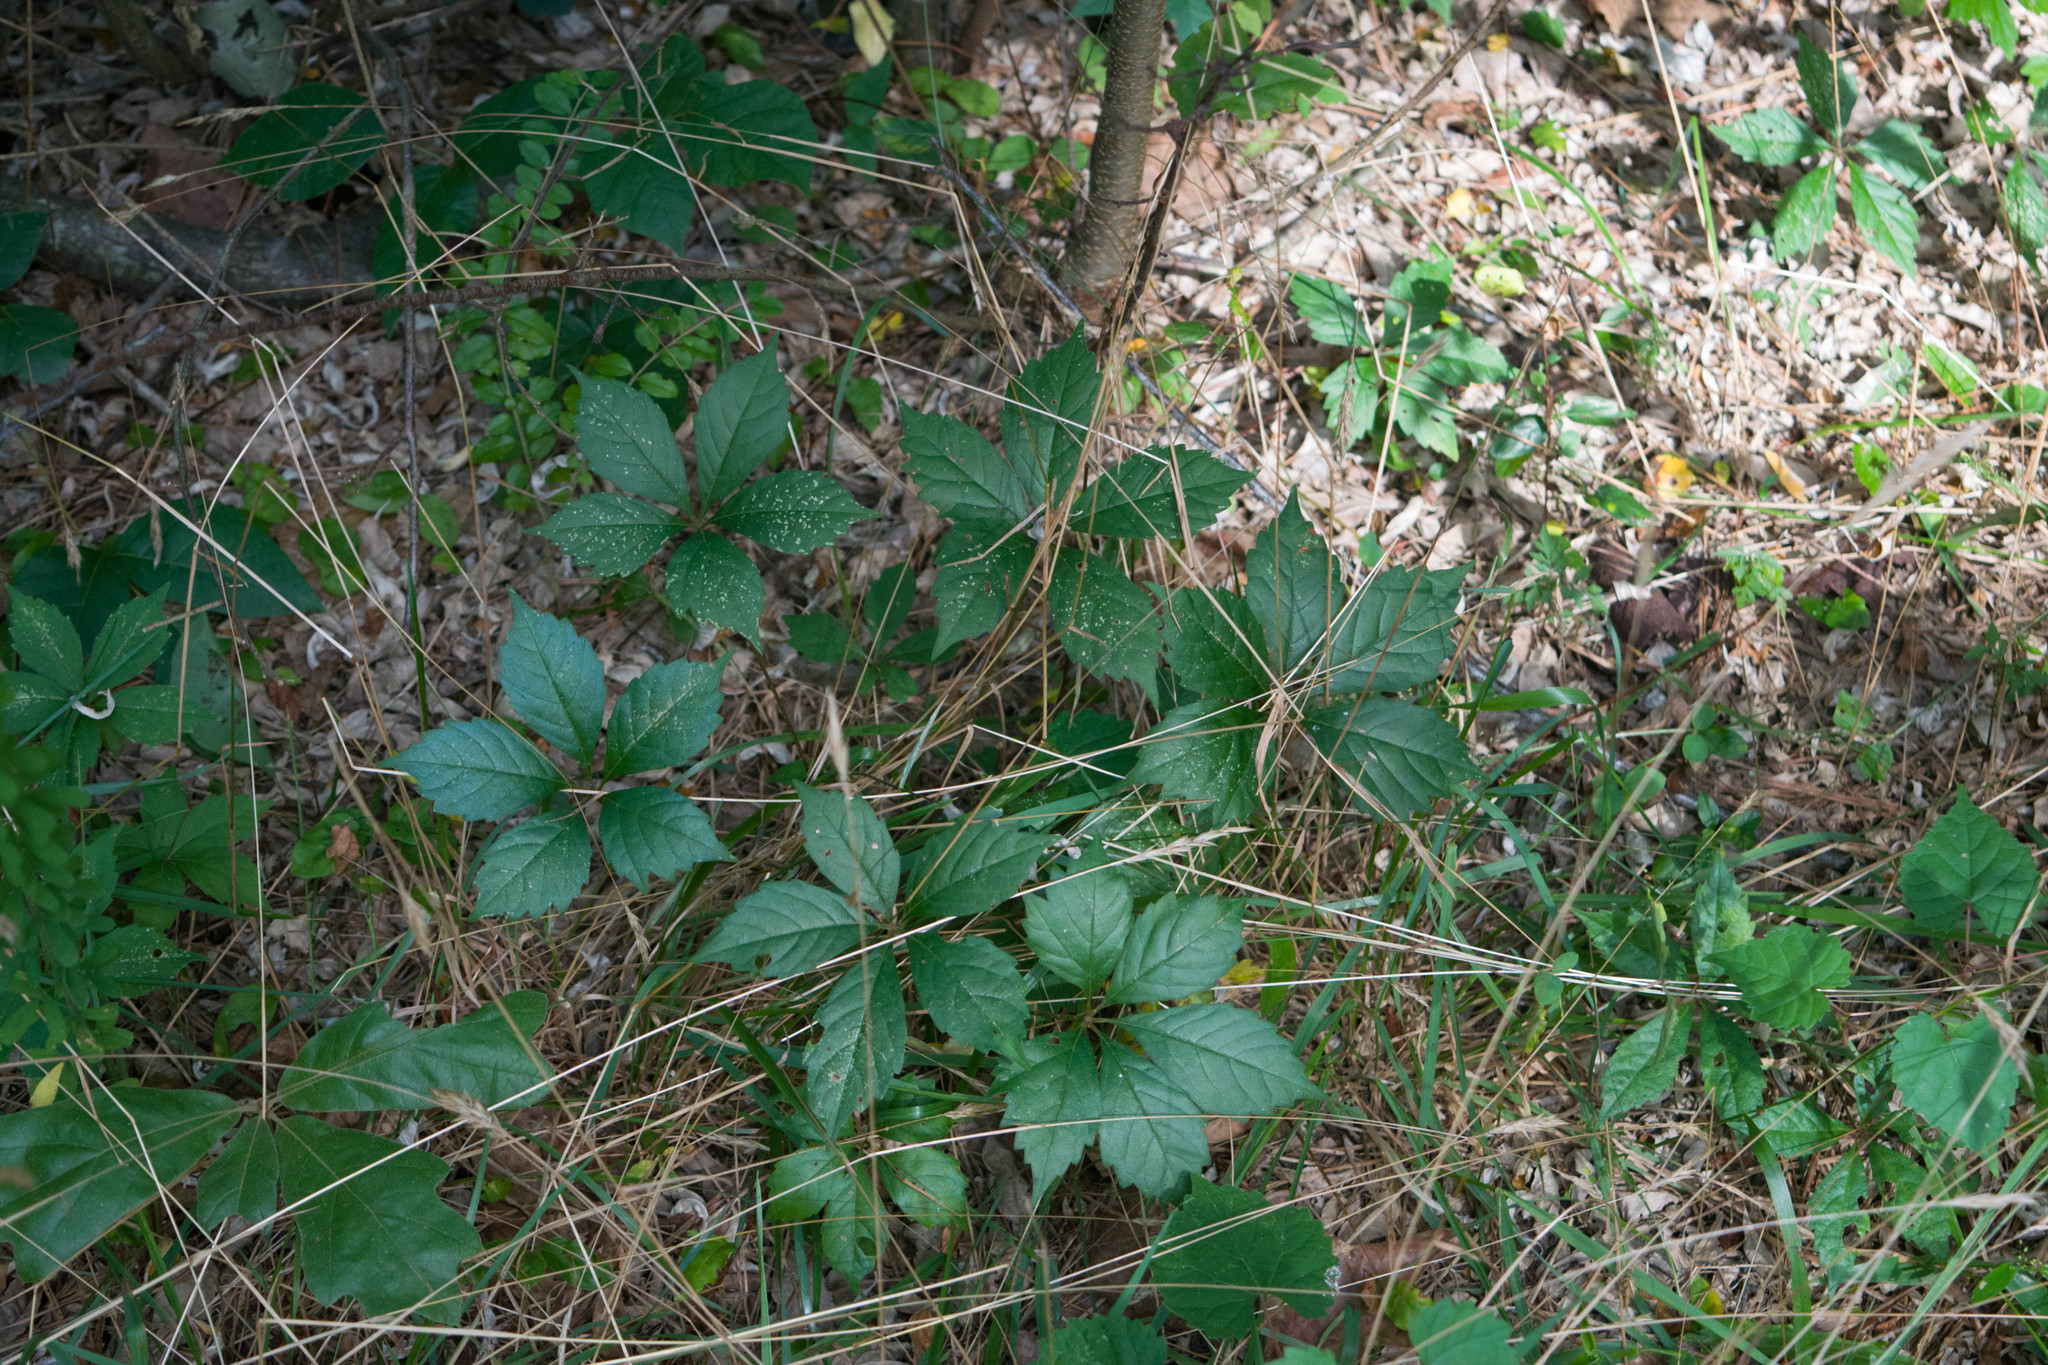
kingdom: Plantae
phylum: Tracheophyta
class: Magnoliopsida
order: Vitales
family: Vitaceae
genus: Parthenocissus
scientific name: Parthenocissus quinquefolia
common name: Virginia-creeper
